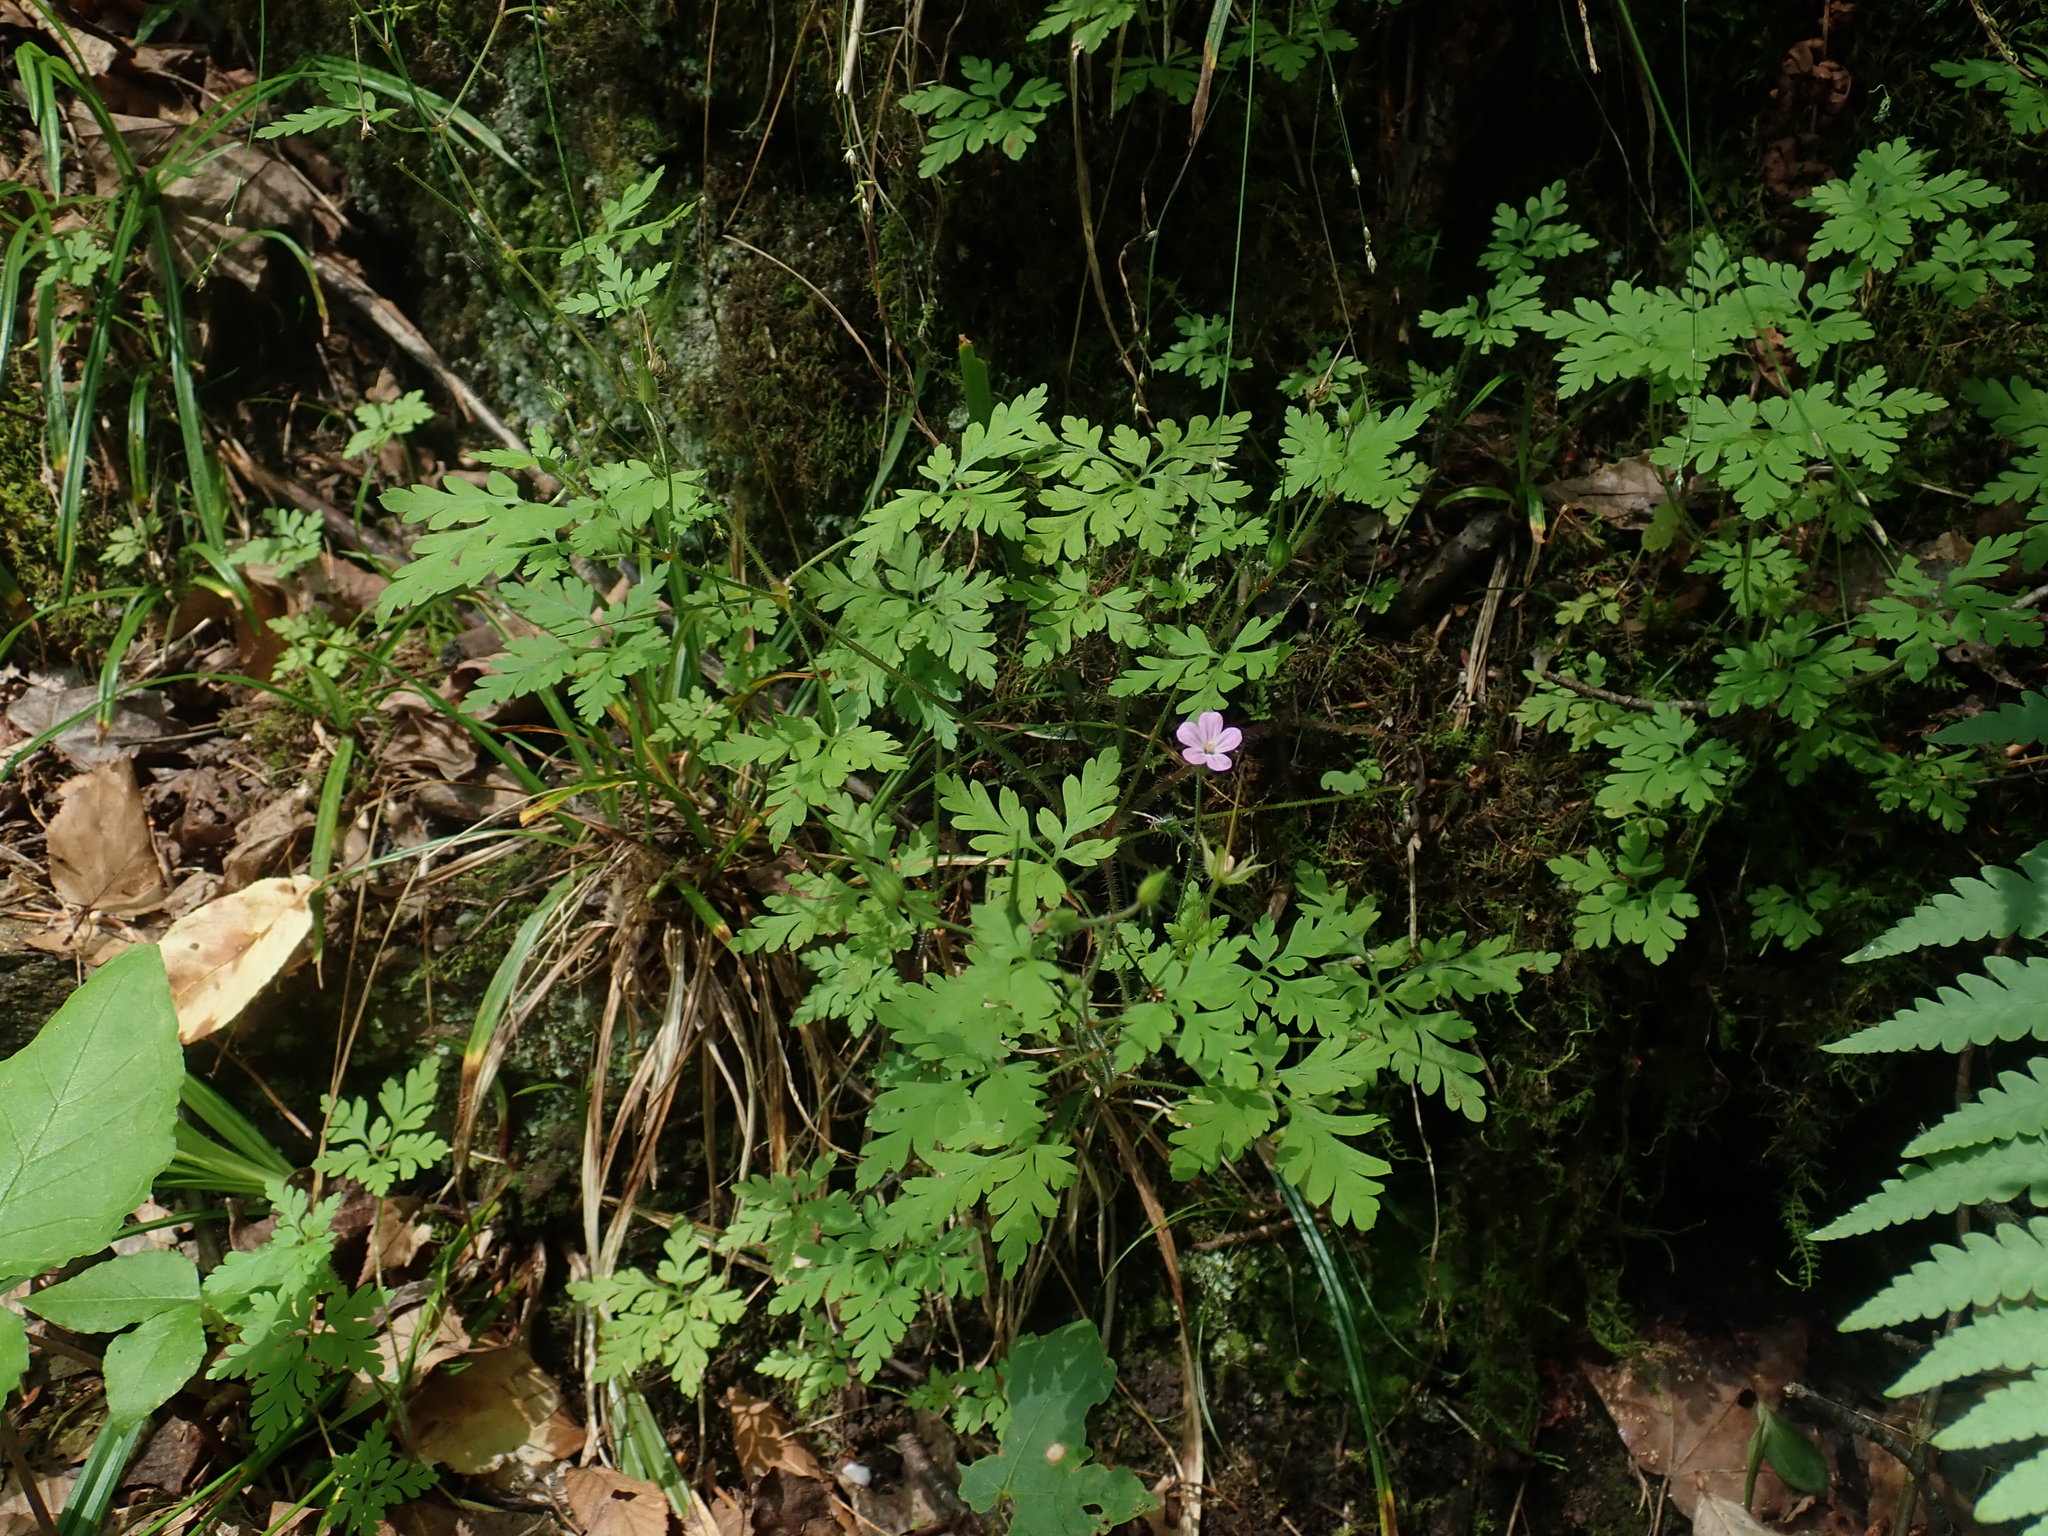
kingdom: Plantae
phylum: Tracheophyta
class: Magnoliopsida
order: Geraniales
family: Geraniaceae
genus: Geranium
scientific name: Geranium robertianum
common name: Herb-robert
